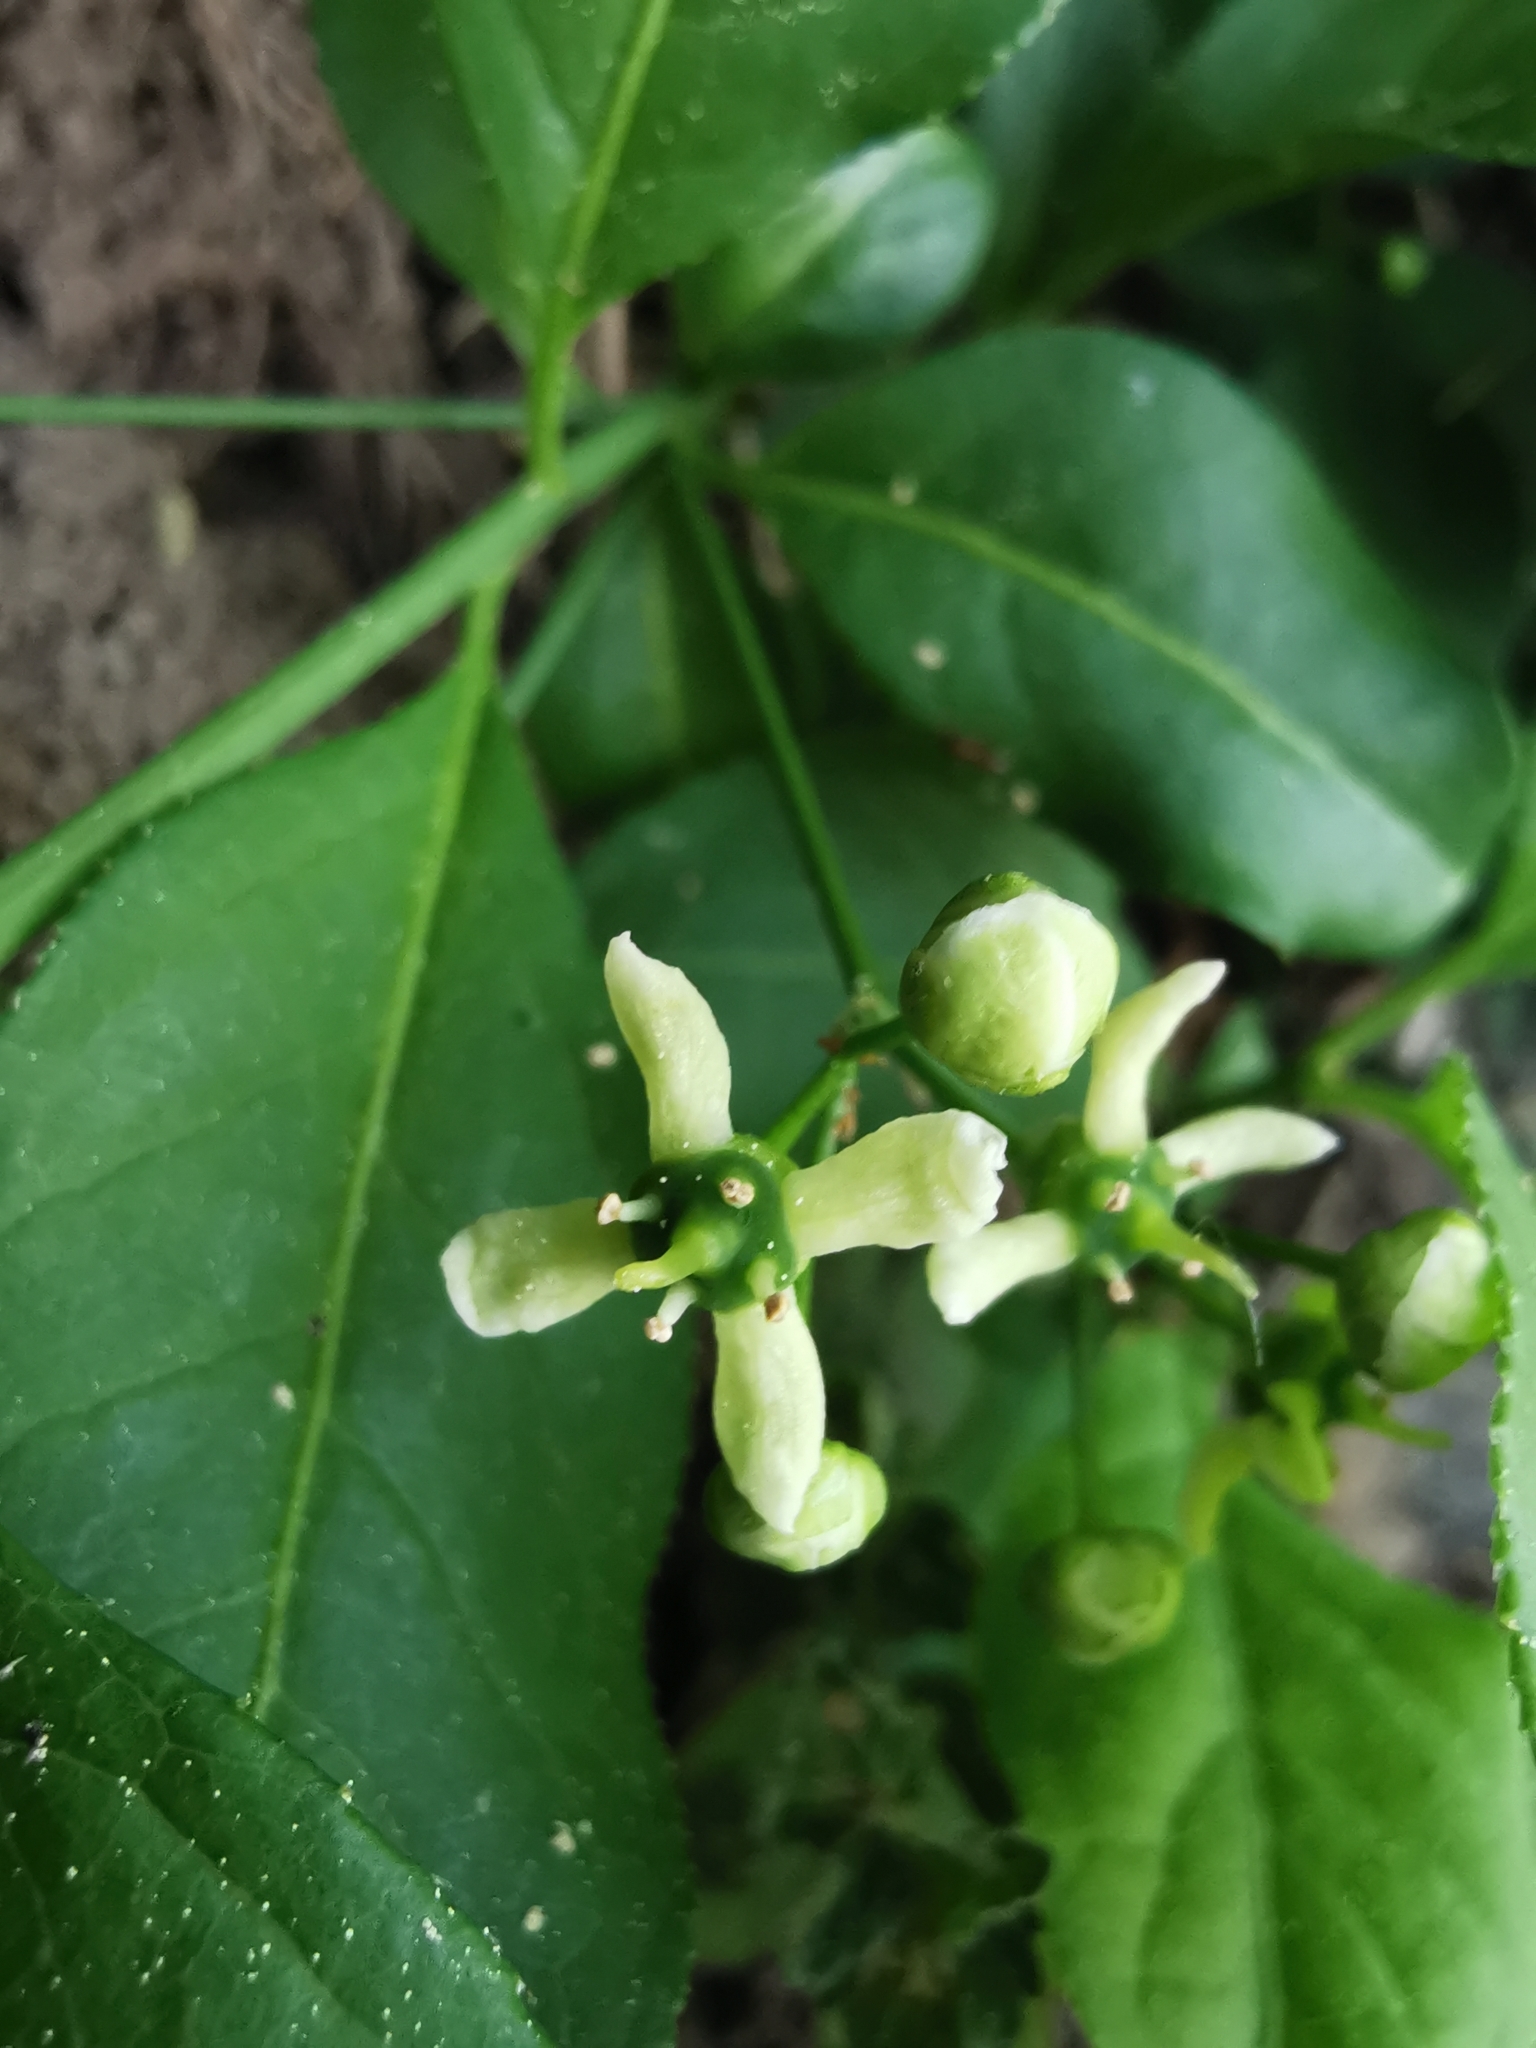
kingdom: Plantae
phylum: Tracheophyta
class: Magnoliopsida
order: Celastrales
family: Celastraceae
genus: Euonymus
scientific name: Euonymus europaeus
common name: Spindle
